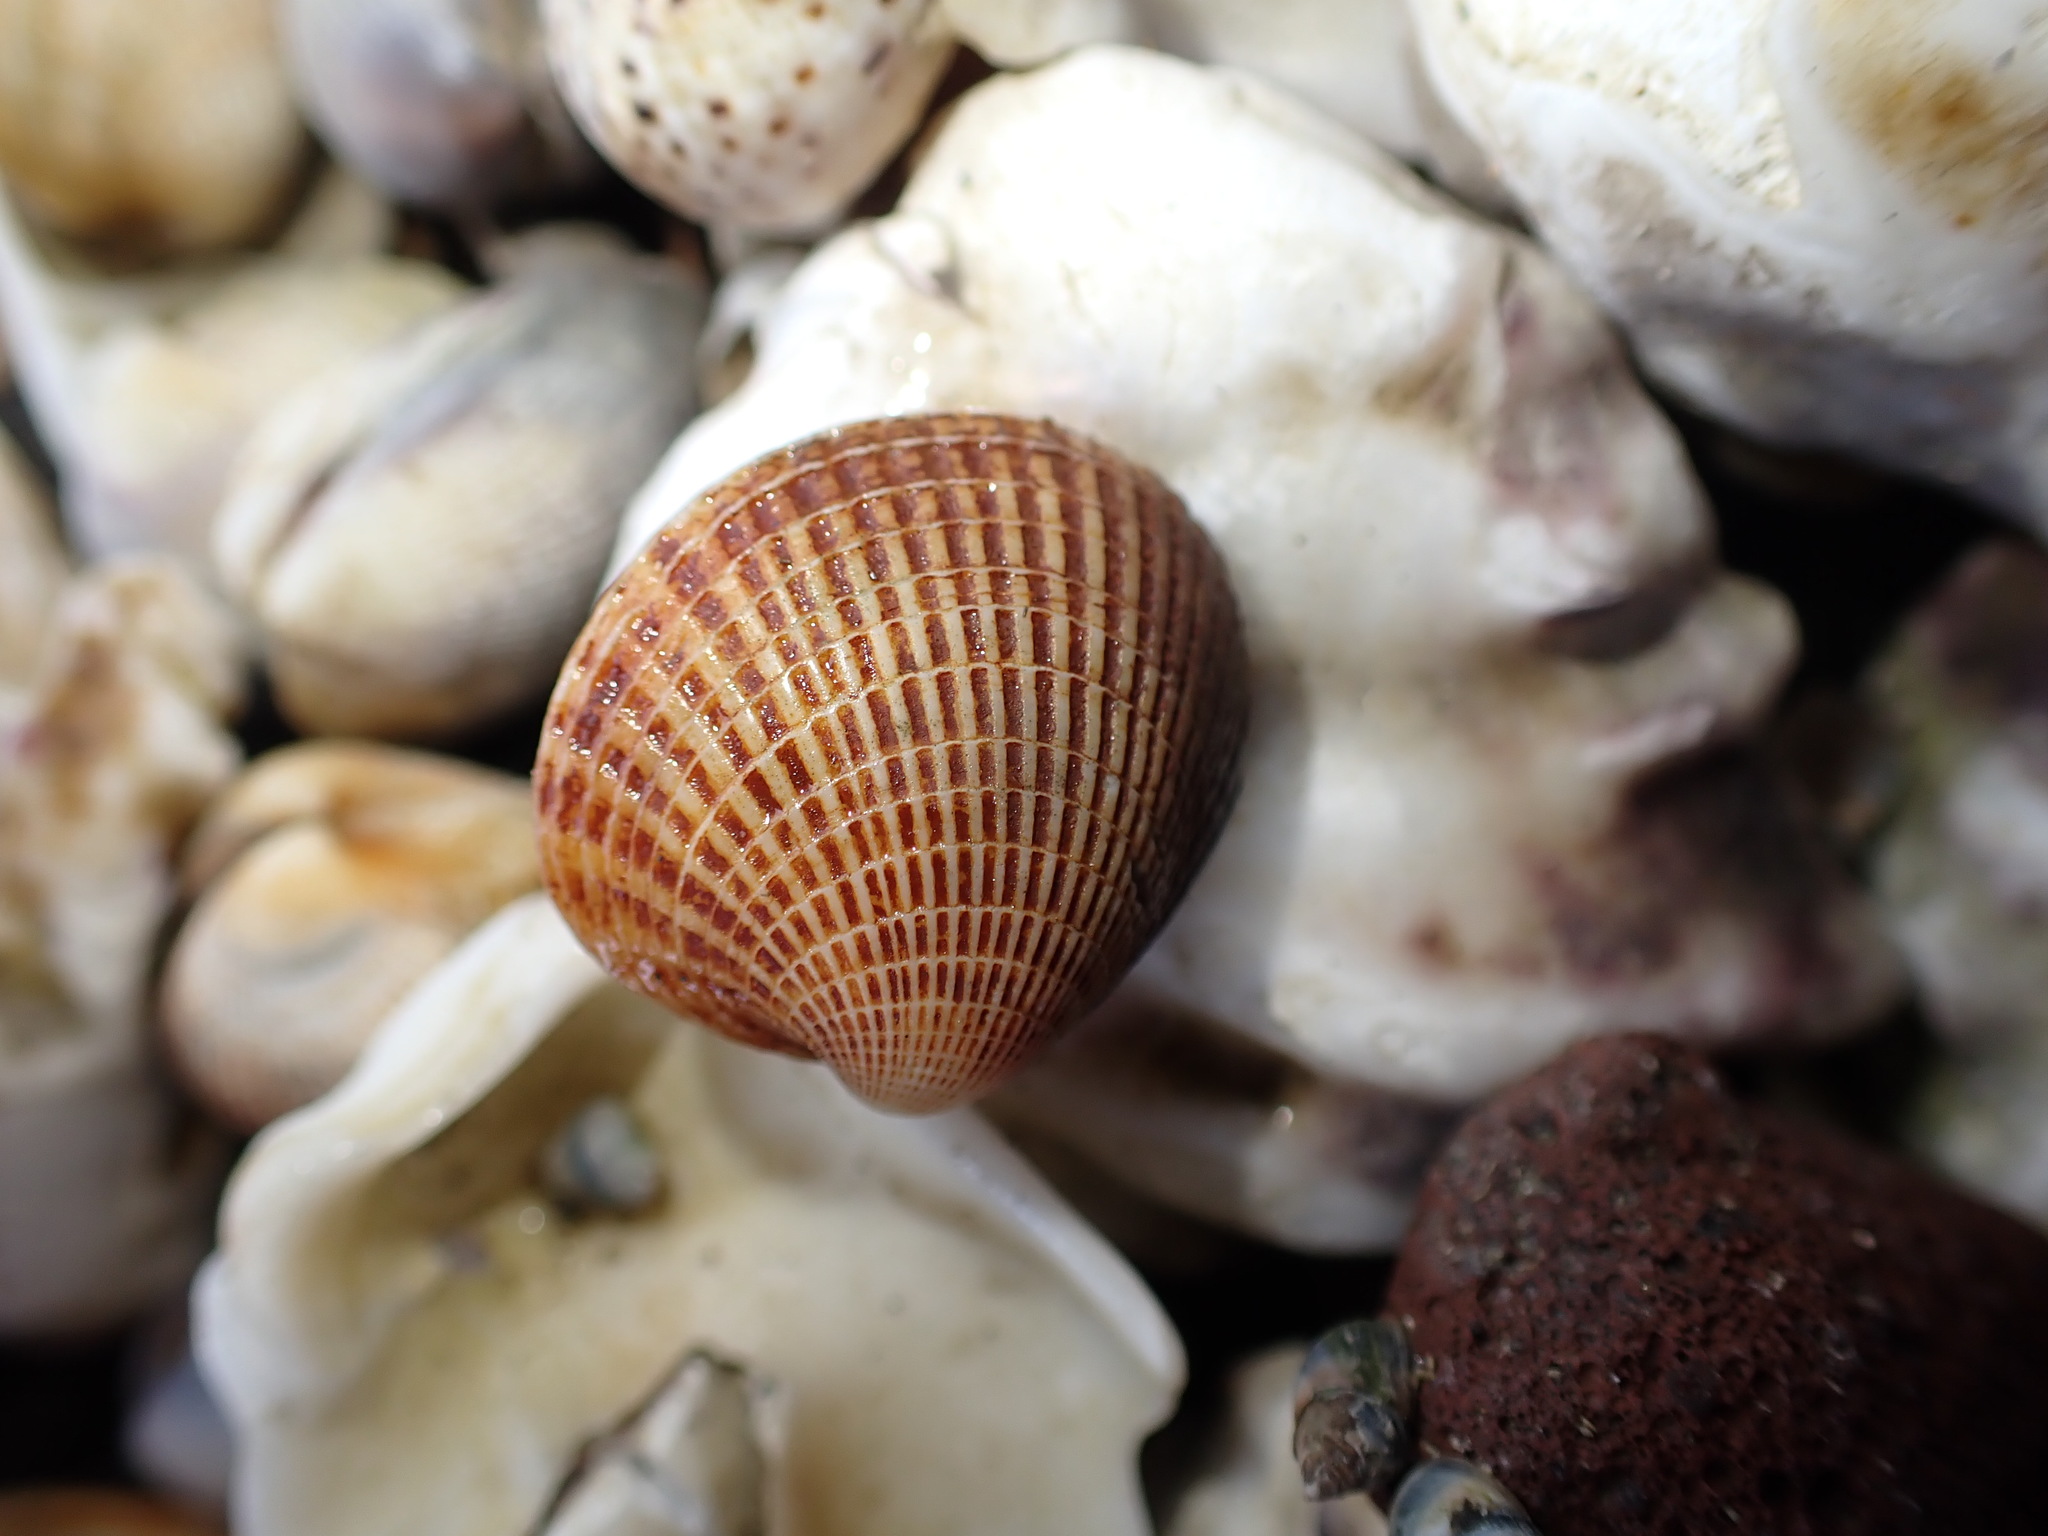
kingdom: Animalia
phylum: Mollusca
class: Bivalvia
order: Venerida
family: Veneridae
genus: Austrovenus
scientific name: Austrovenus stutchburyi
